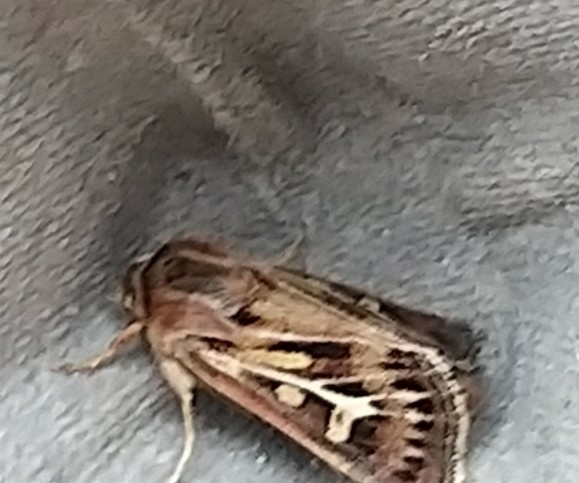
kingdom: Animalia
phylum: Arthropoda
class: Insecta
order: Lepidoptera
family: Noctuidae
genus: Cerapteryx
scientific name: Cerapteryx graminis
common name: Antler moth
